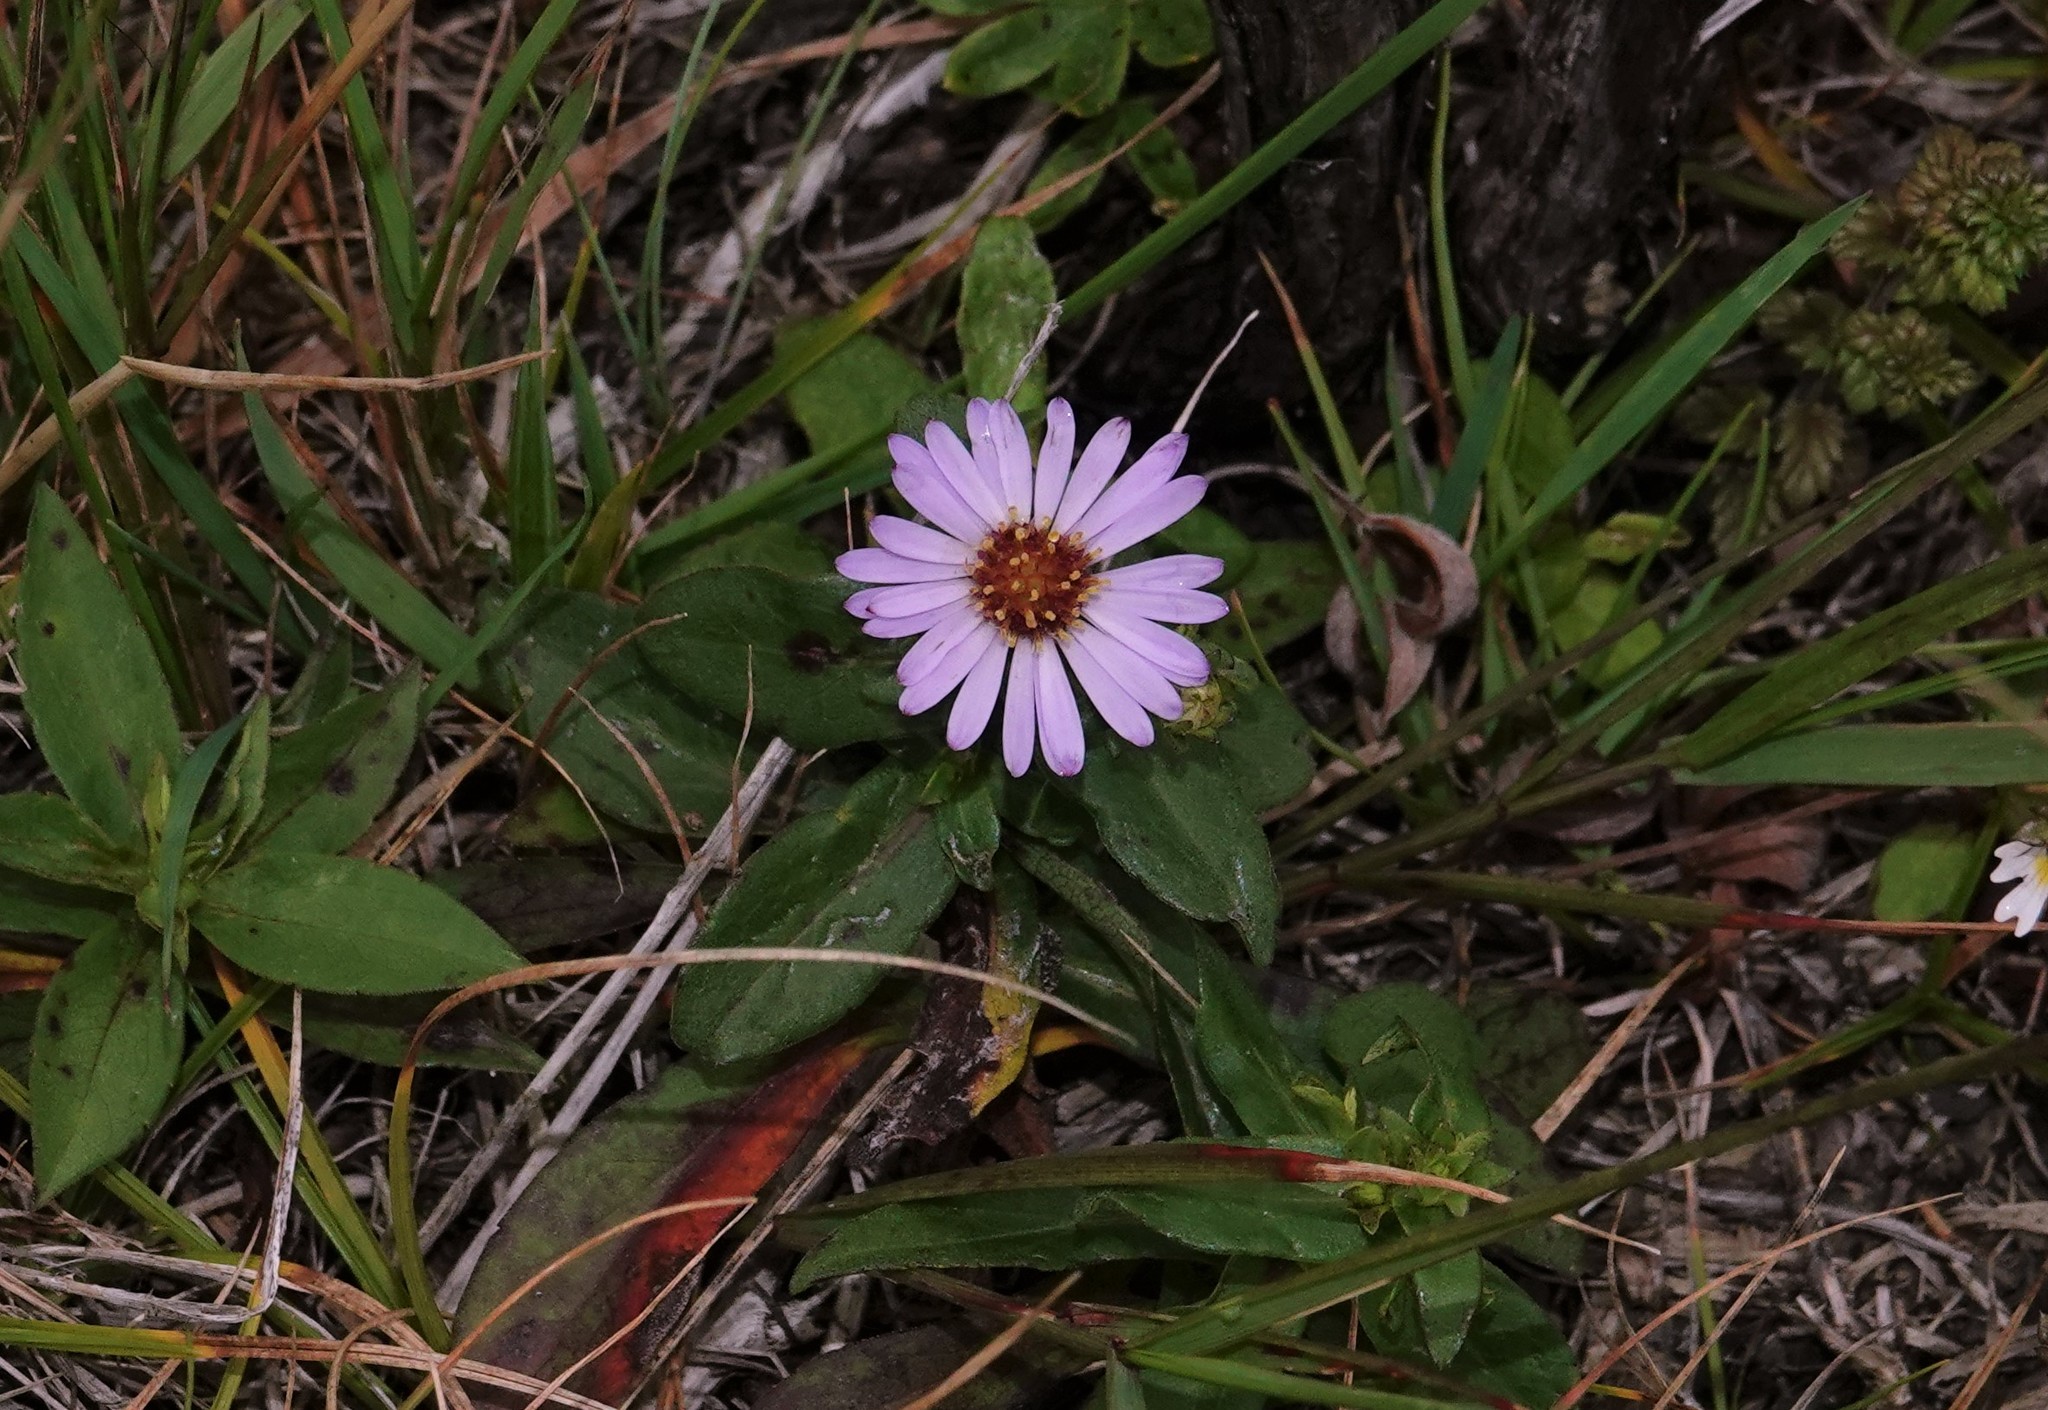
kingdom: Plantae
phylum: Tracheophyta
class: Magnoliopsida
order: Asterales
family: Asteraceae
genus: Symphyotrichum
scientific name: Symphyotrichum novi-belgii
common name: Michaelmas daisy
